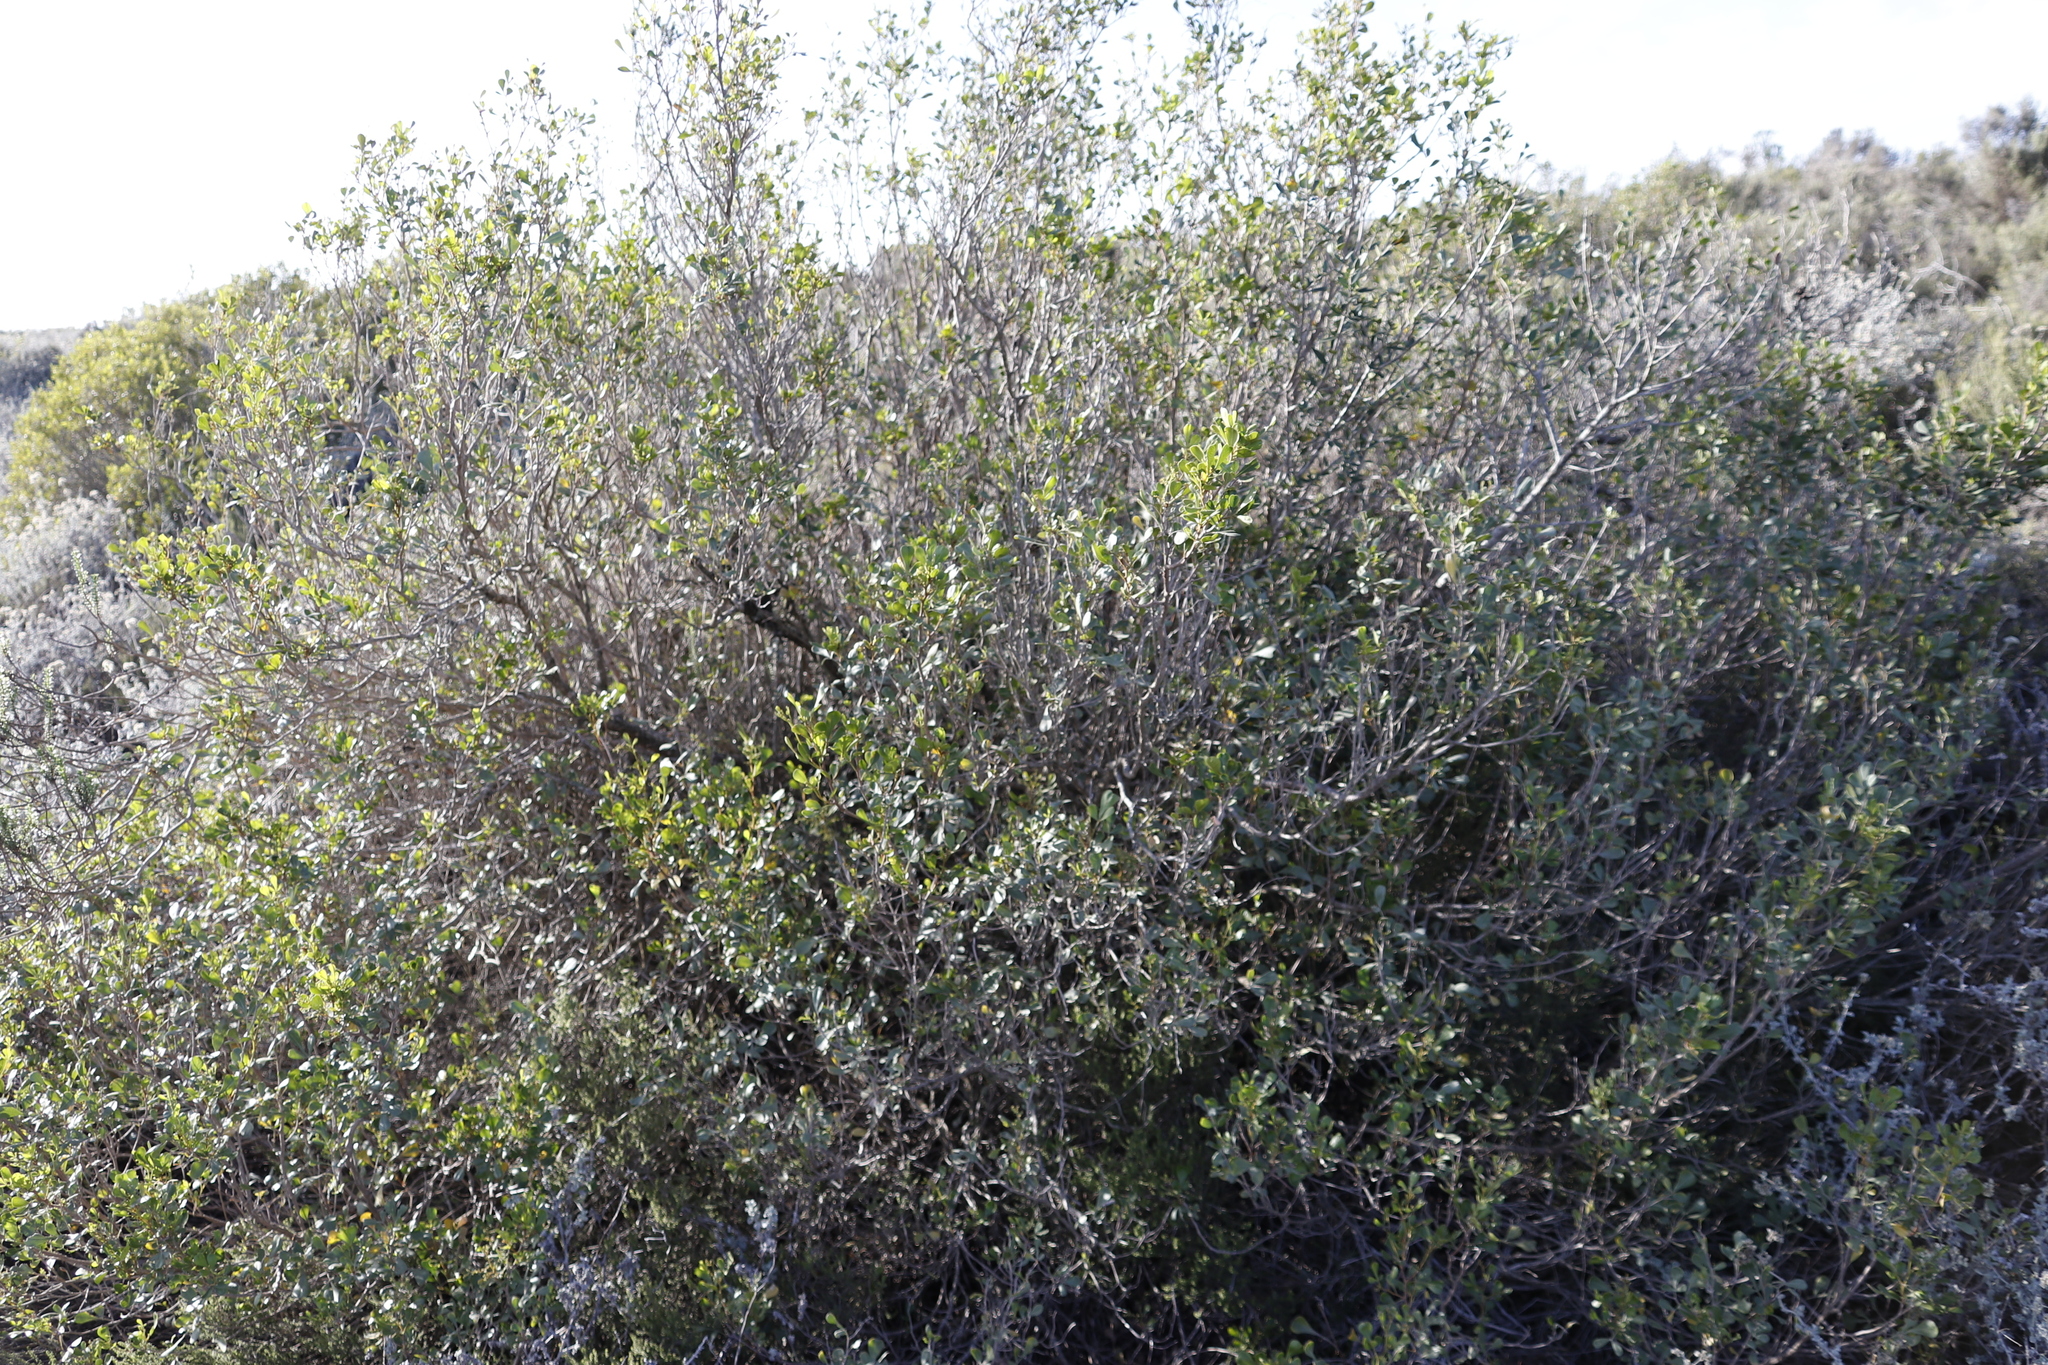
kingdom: Plantae
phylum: Tracheophyta
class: Magnoliopsida
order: Sapindales
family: Anacardiaceae
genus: Searsia
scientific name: Searsia pallens
